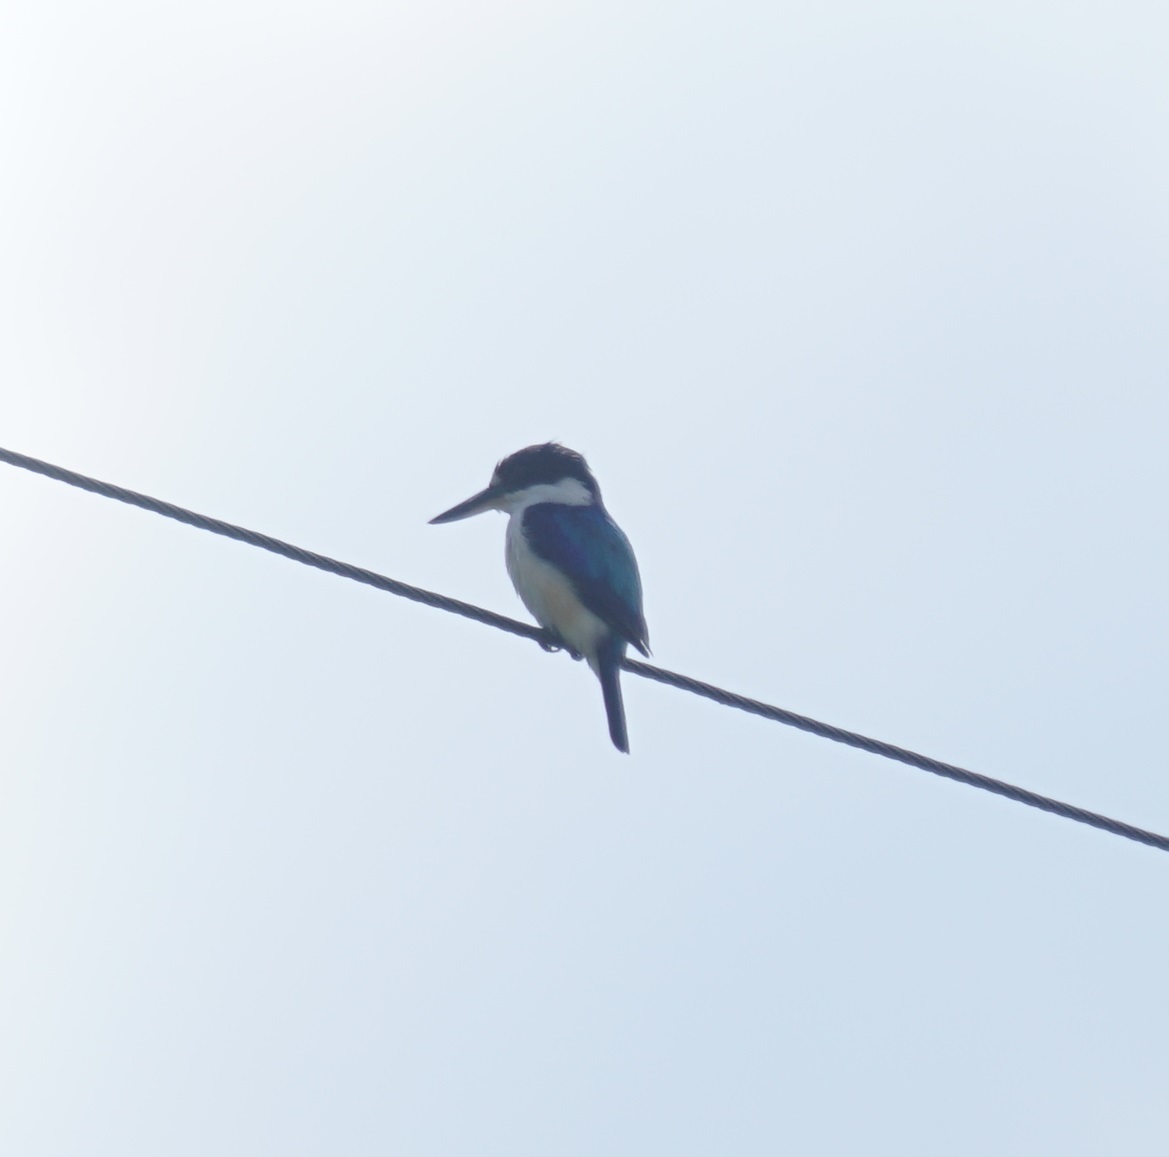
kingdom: Animalia
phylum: Chordata
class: Aves
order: Coraciiformes
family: Alcedinidae
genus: Todiramphus
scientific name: Todiramphus macleayii
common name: Forest kingfisher
